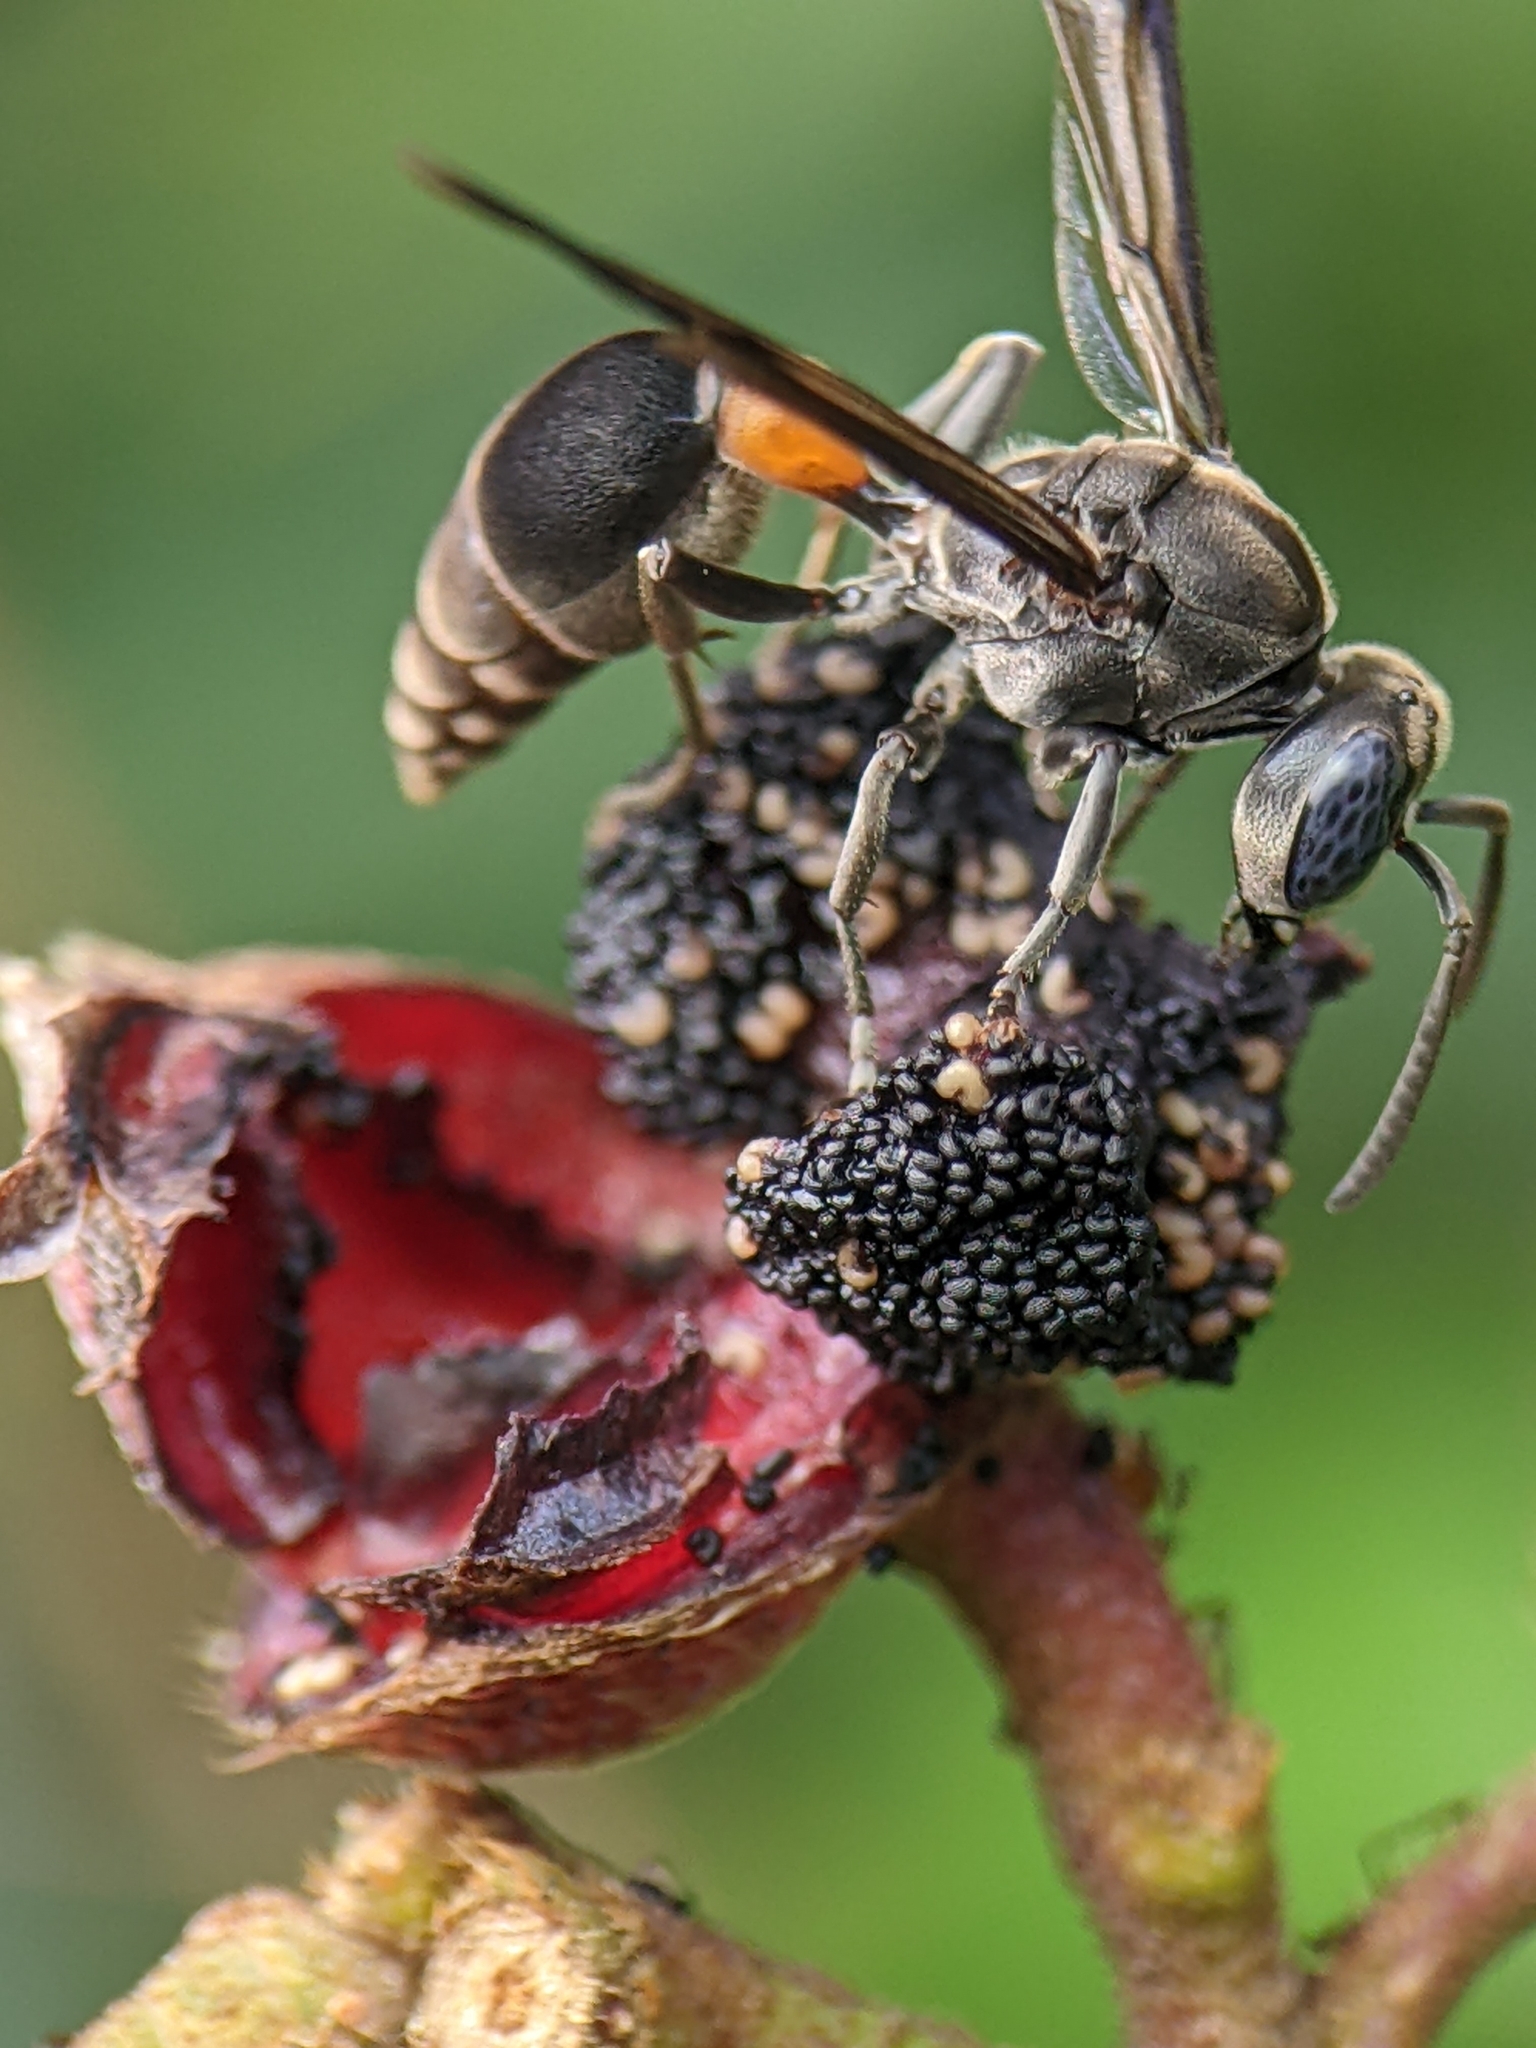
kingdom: Animalia
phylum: Arthropoda
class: Insecta
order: Hymenoptera
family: Vespidae
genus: Ropalidia
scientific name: Ropalidia sumatrae
